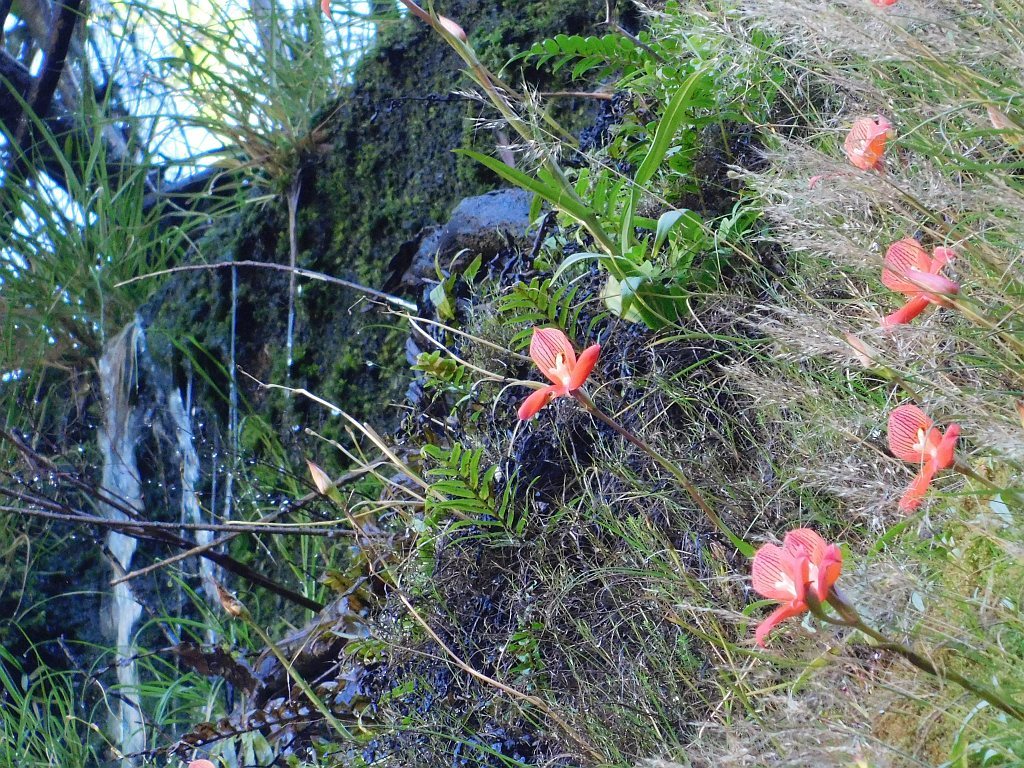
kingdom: Plantae
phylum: Tracheophyta
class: Liliopsida
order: Asparagales
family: Orchidaceae
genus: Disa
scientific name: Disa uniflora
